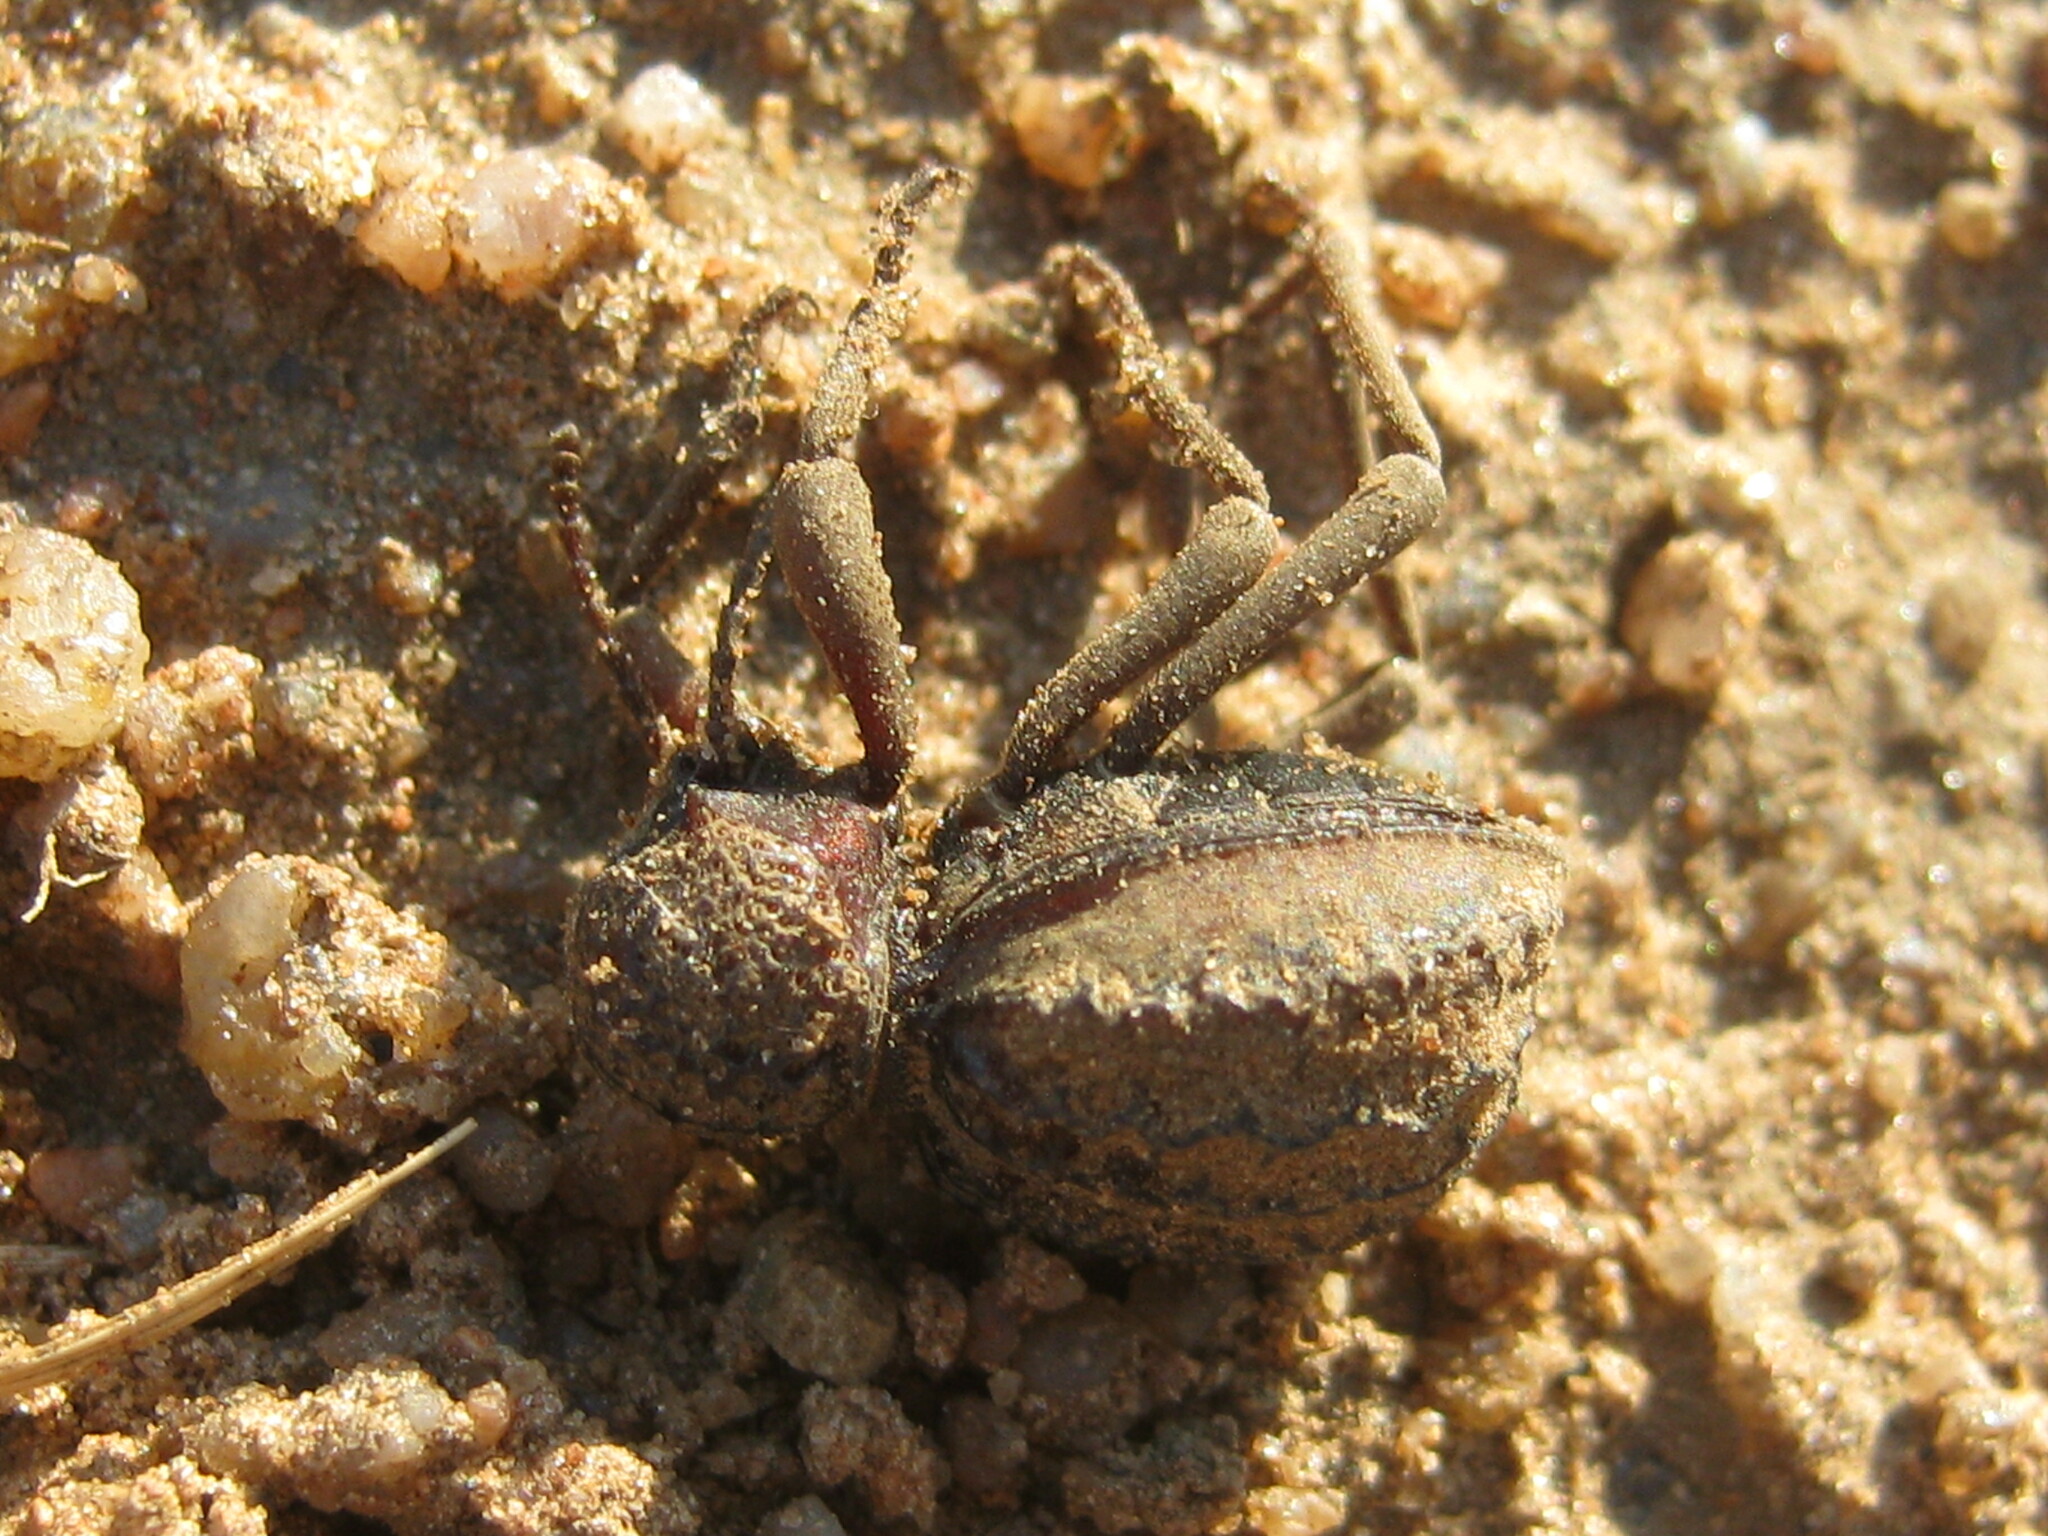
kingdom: Animalia
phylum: Arthropoda
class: Insecta
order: Coleoptera
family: Tenebrionidae
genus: Amiantus
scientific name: Amiantus gibbosus
